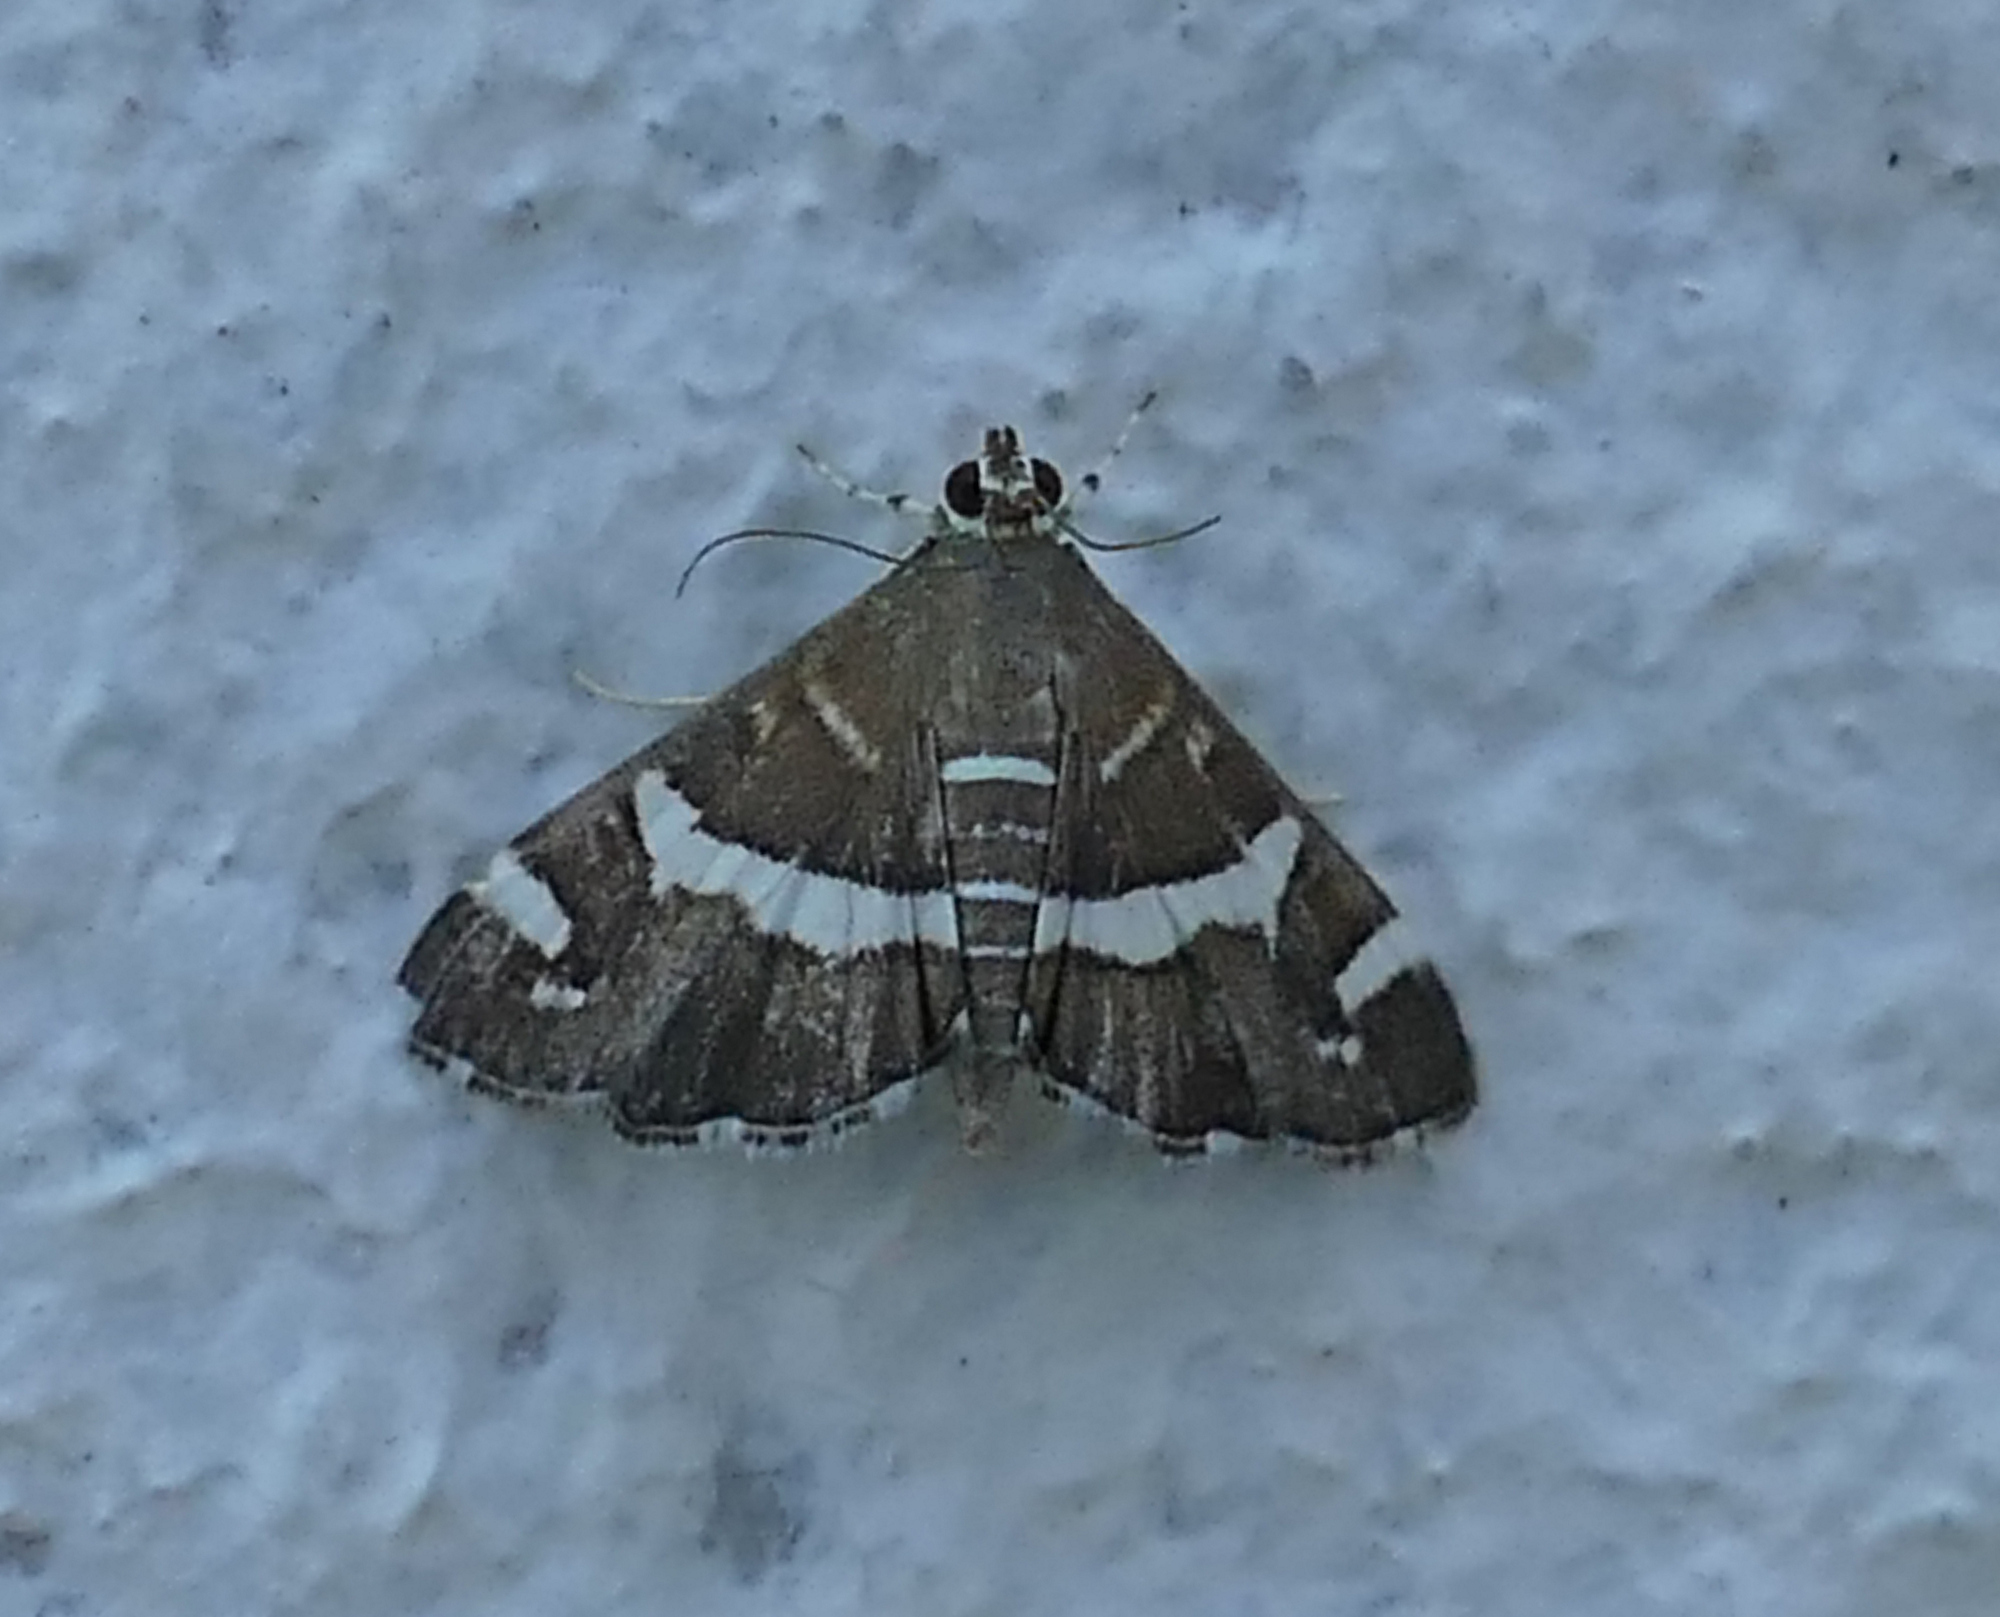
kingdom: Animalia
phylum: Arthropoda
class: Insecta
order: Lepidoptera
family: Crambidae
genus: Spoladea
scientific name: Spoladea recurvalis
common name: Beet webworm moth
